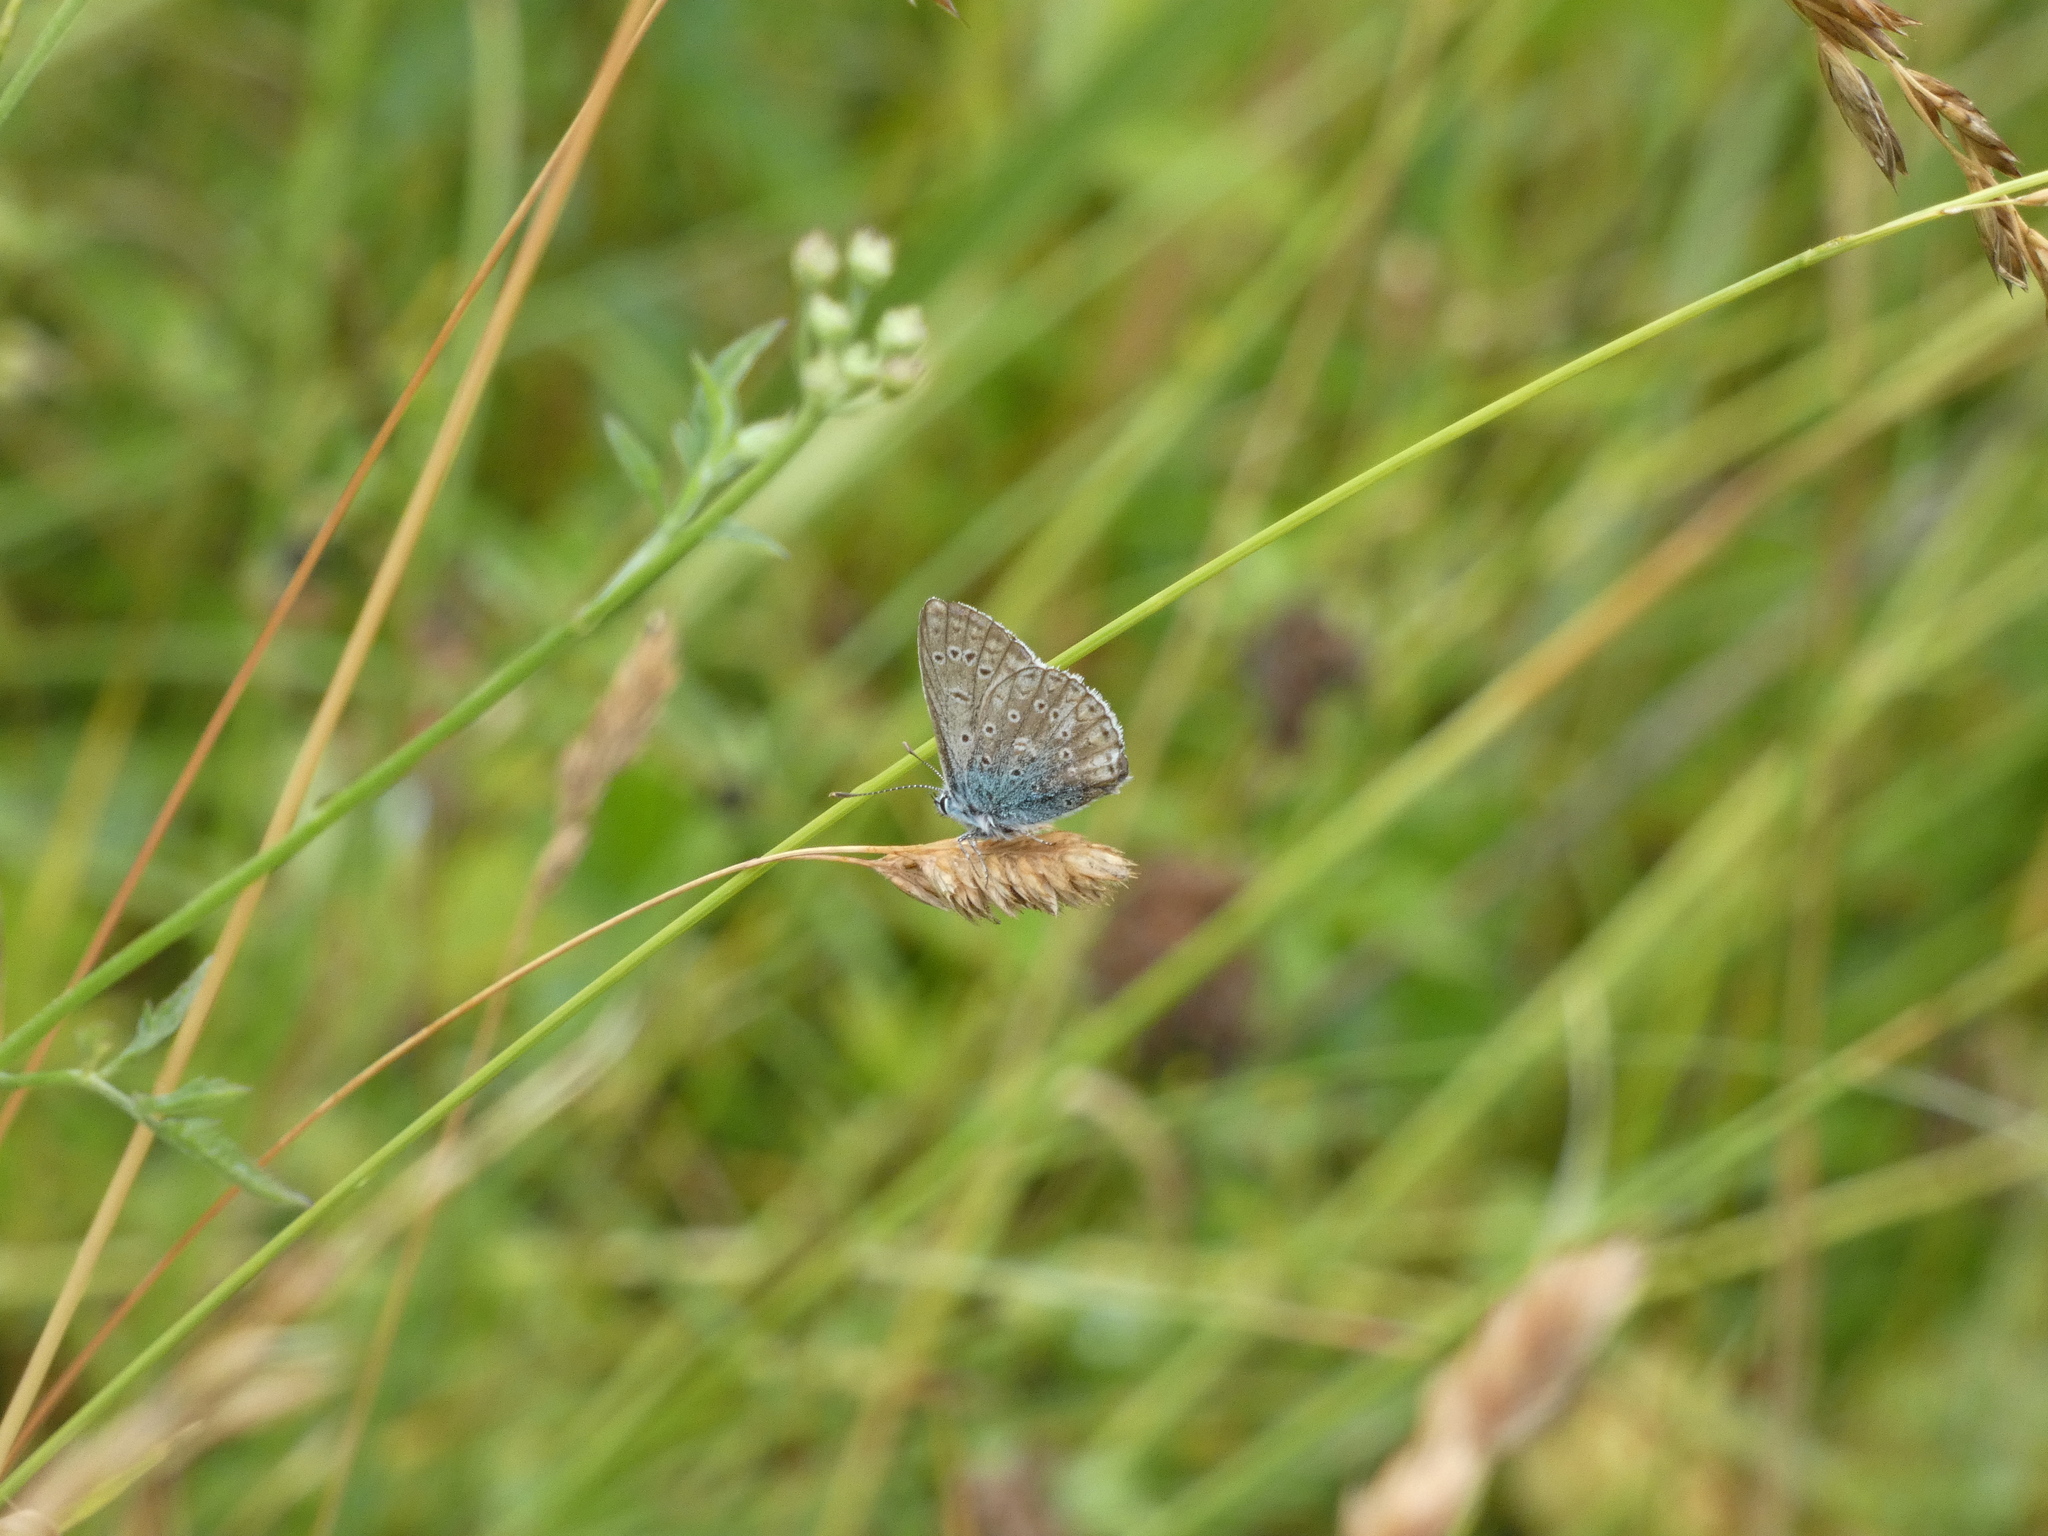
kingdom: Animalia
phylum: Arthropoda
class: Insecta
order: Lepidoptera
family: Lycaenidae
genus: Polyommatus
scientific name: Polyommatus icarus
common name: Common blue
